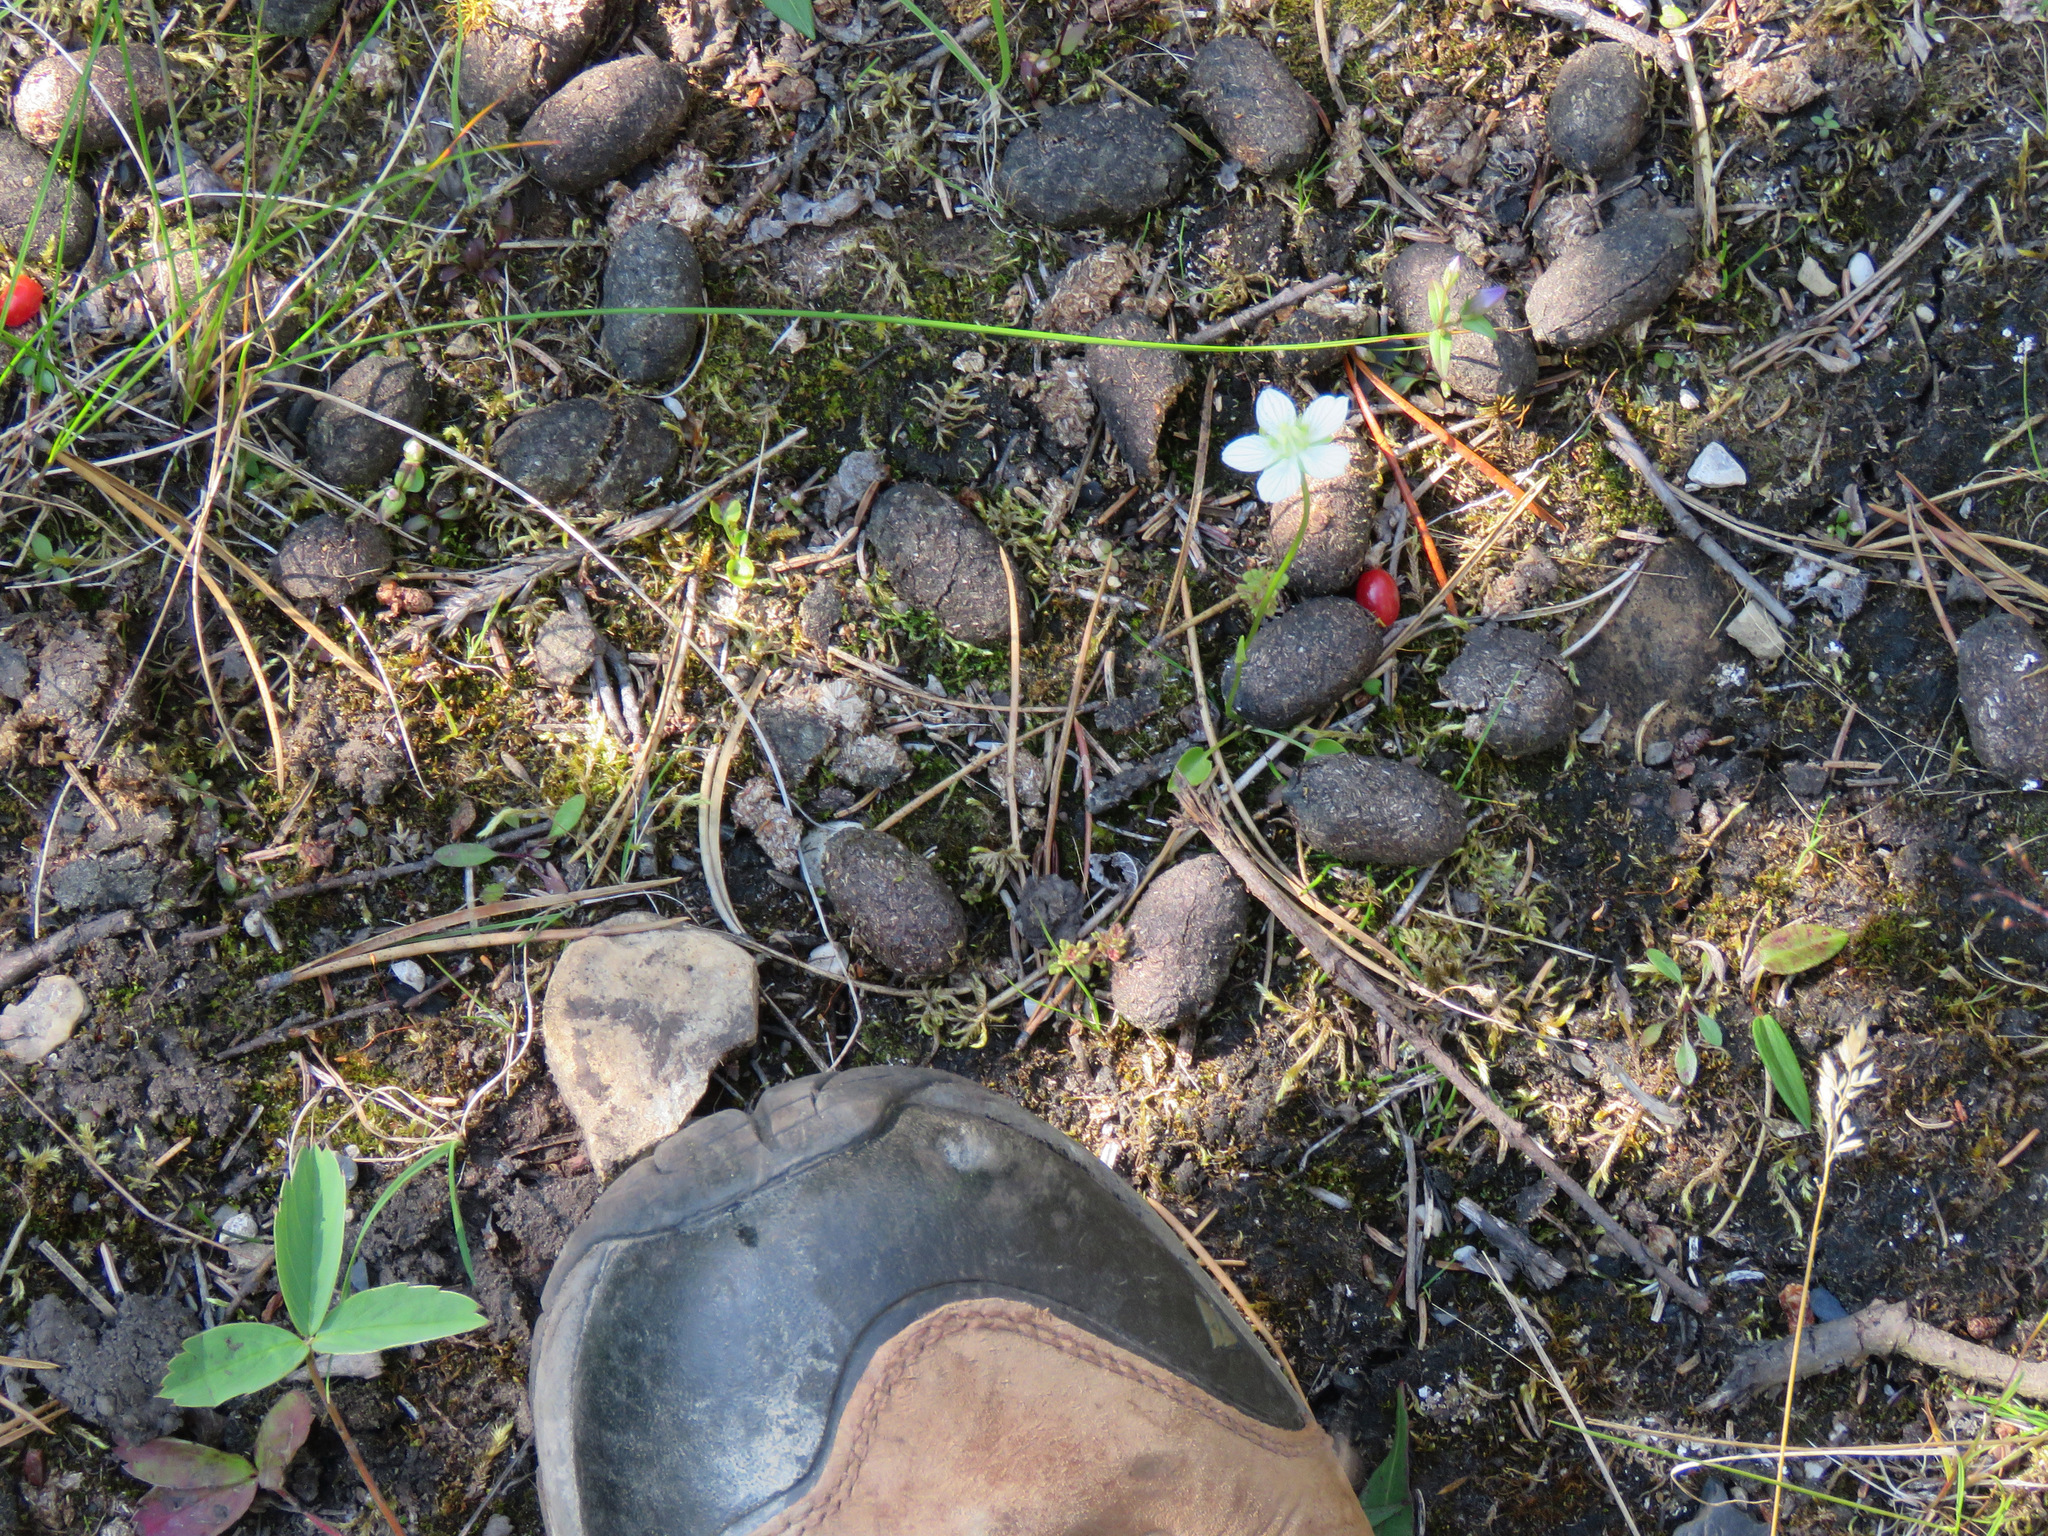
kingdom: Animalia
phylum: Chordata
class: Mammalia
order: Artiodactyla
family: Cervidae
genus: Alces
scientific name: Alces alces
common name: Moose
